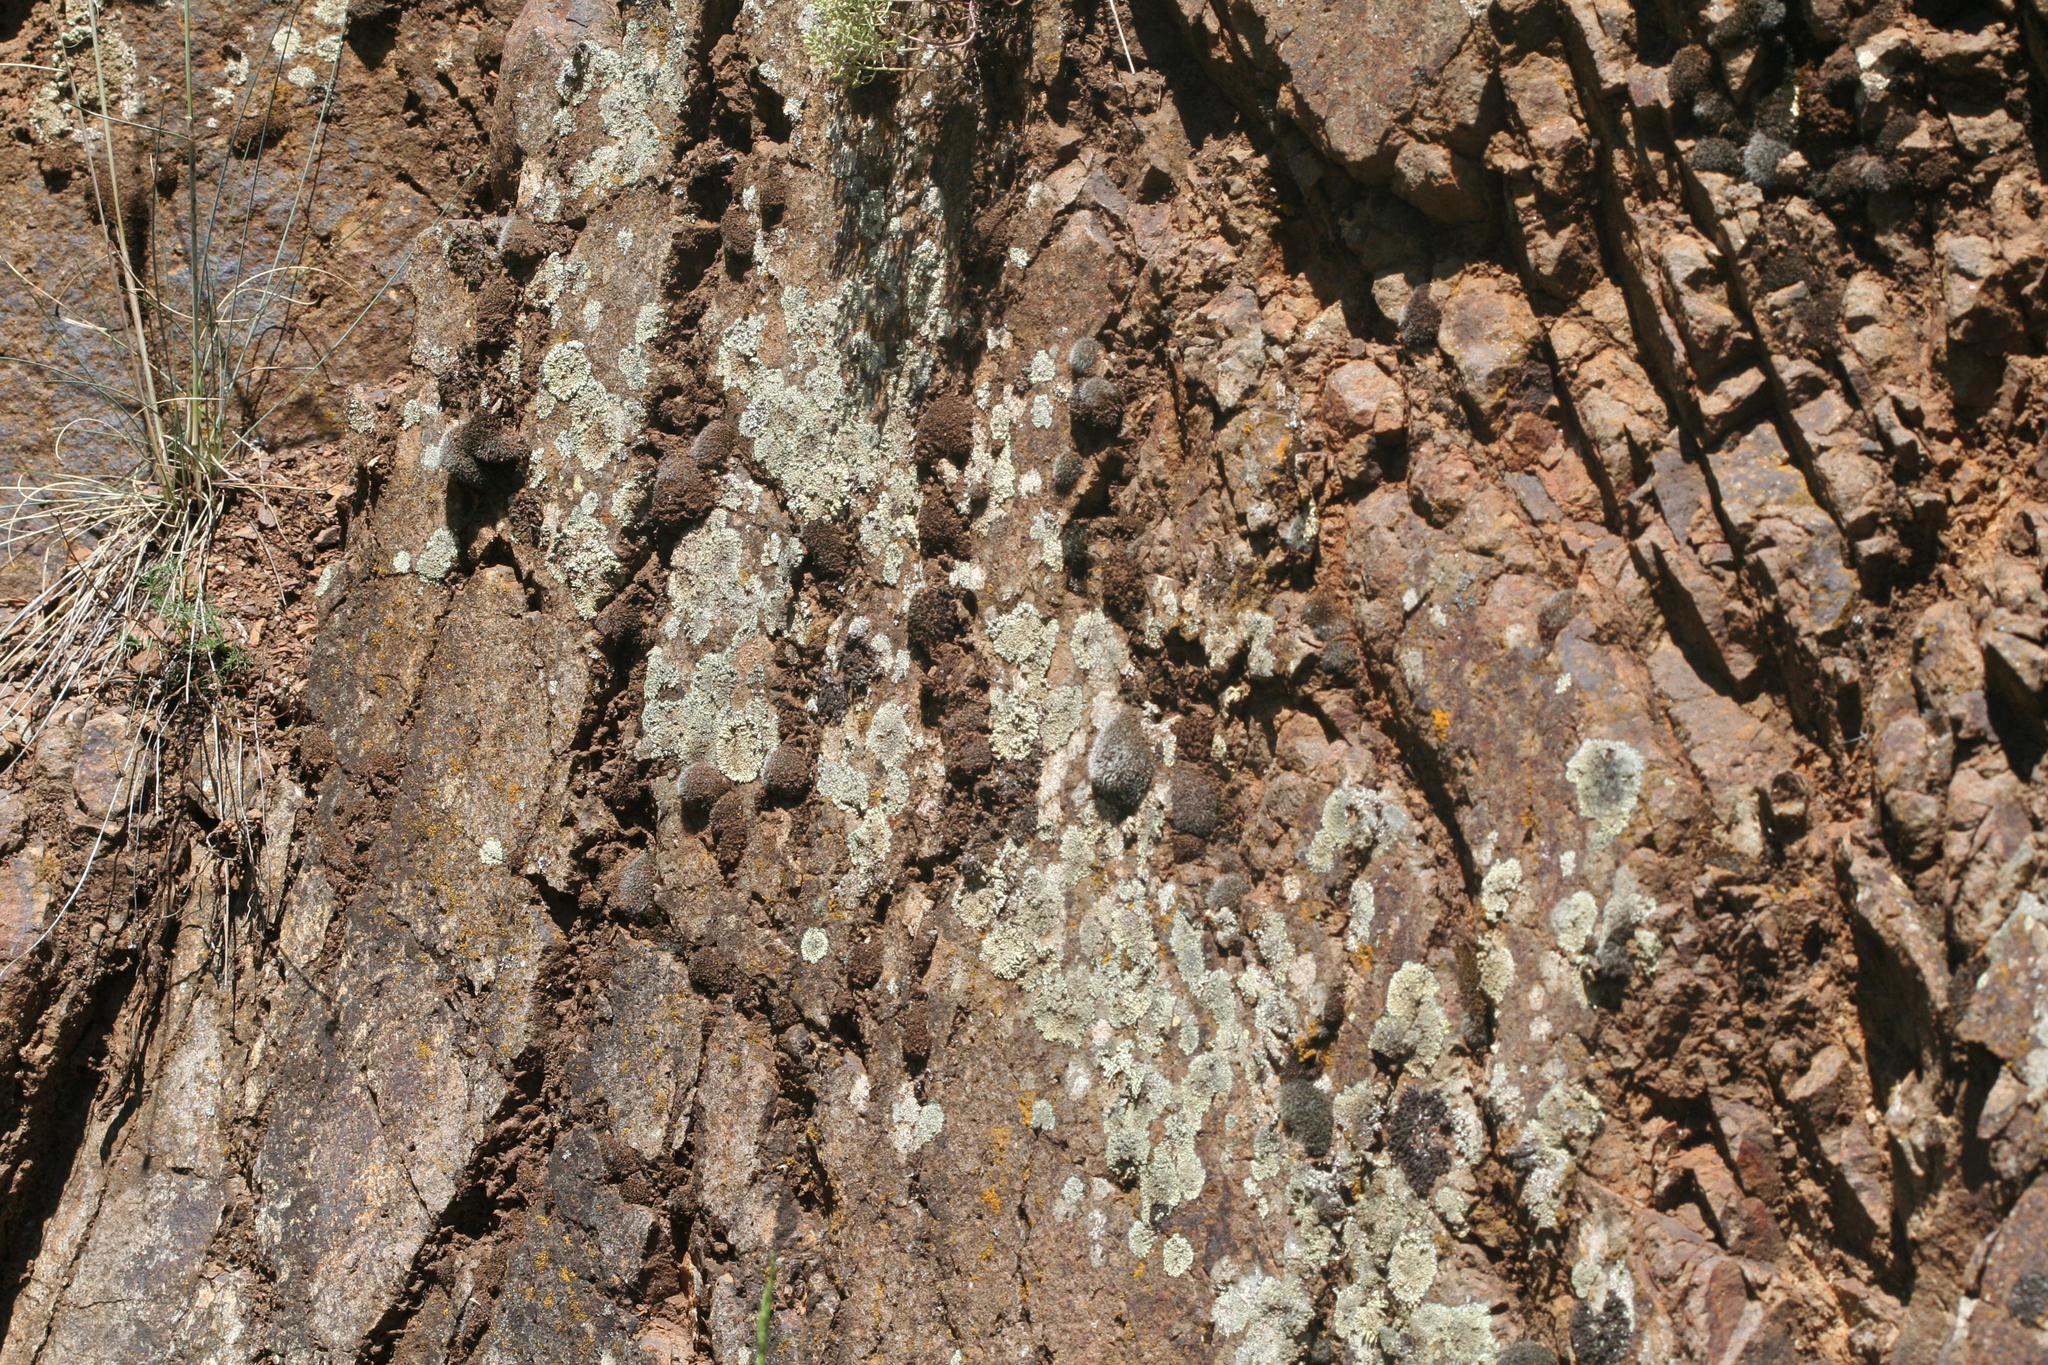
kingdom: Fungi
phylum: Ascomycota
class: Lecanoromycetes
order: Lecanorales
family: Lecanoraceae
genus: Protoparmeliopsis
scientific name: Protoparmeliopsis muralis
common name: Stonewall rim lichen
